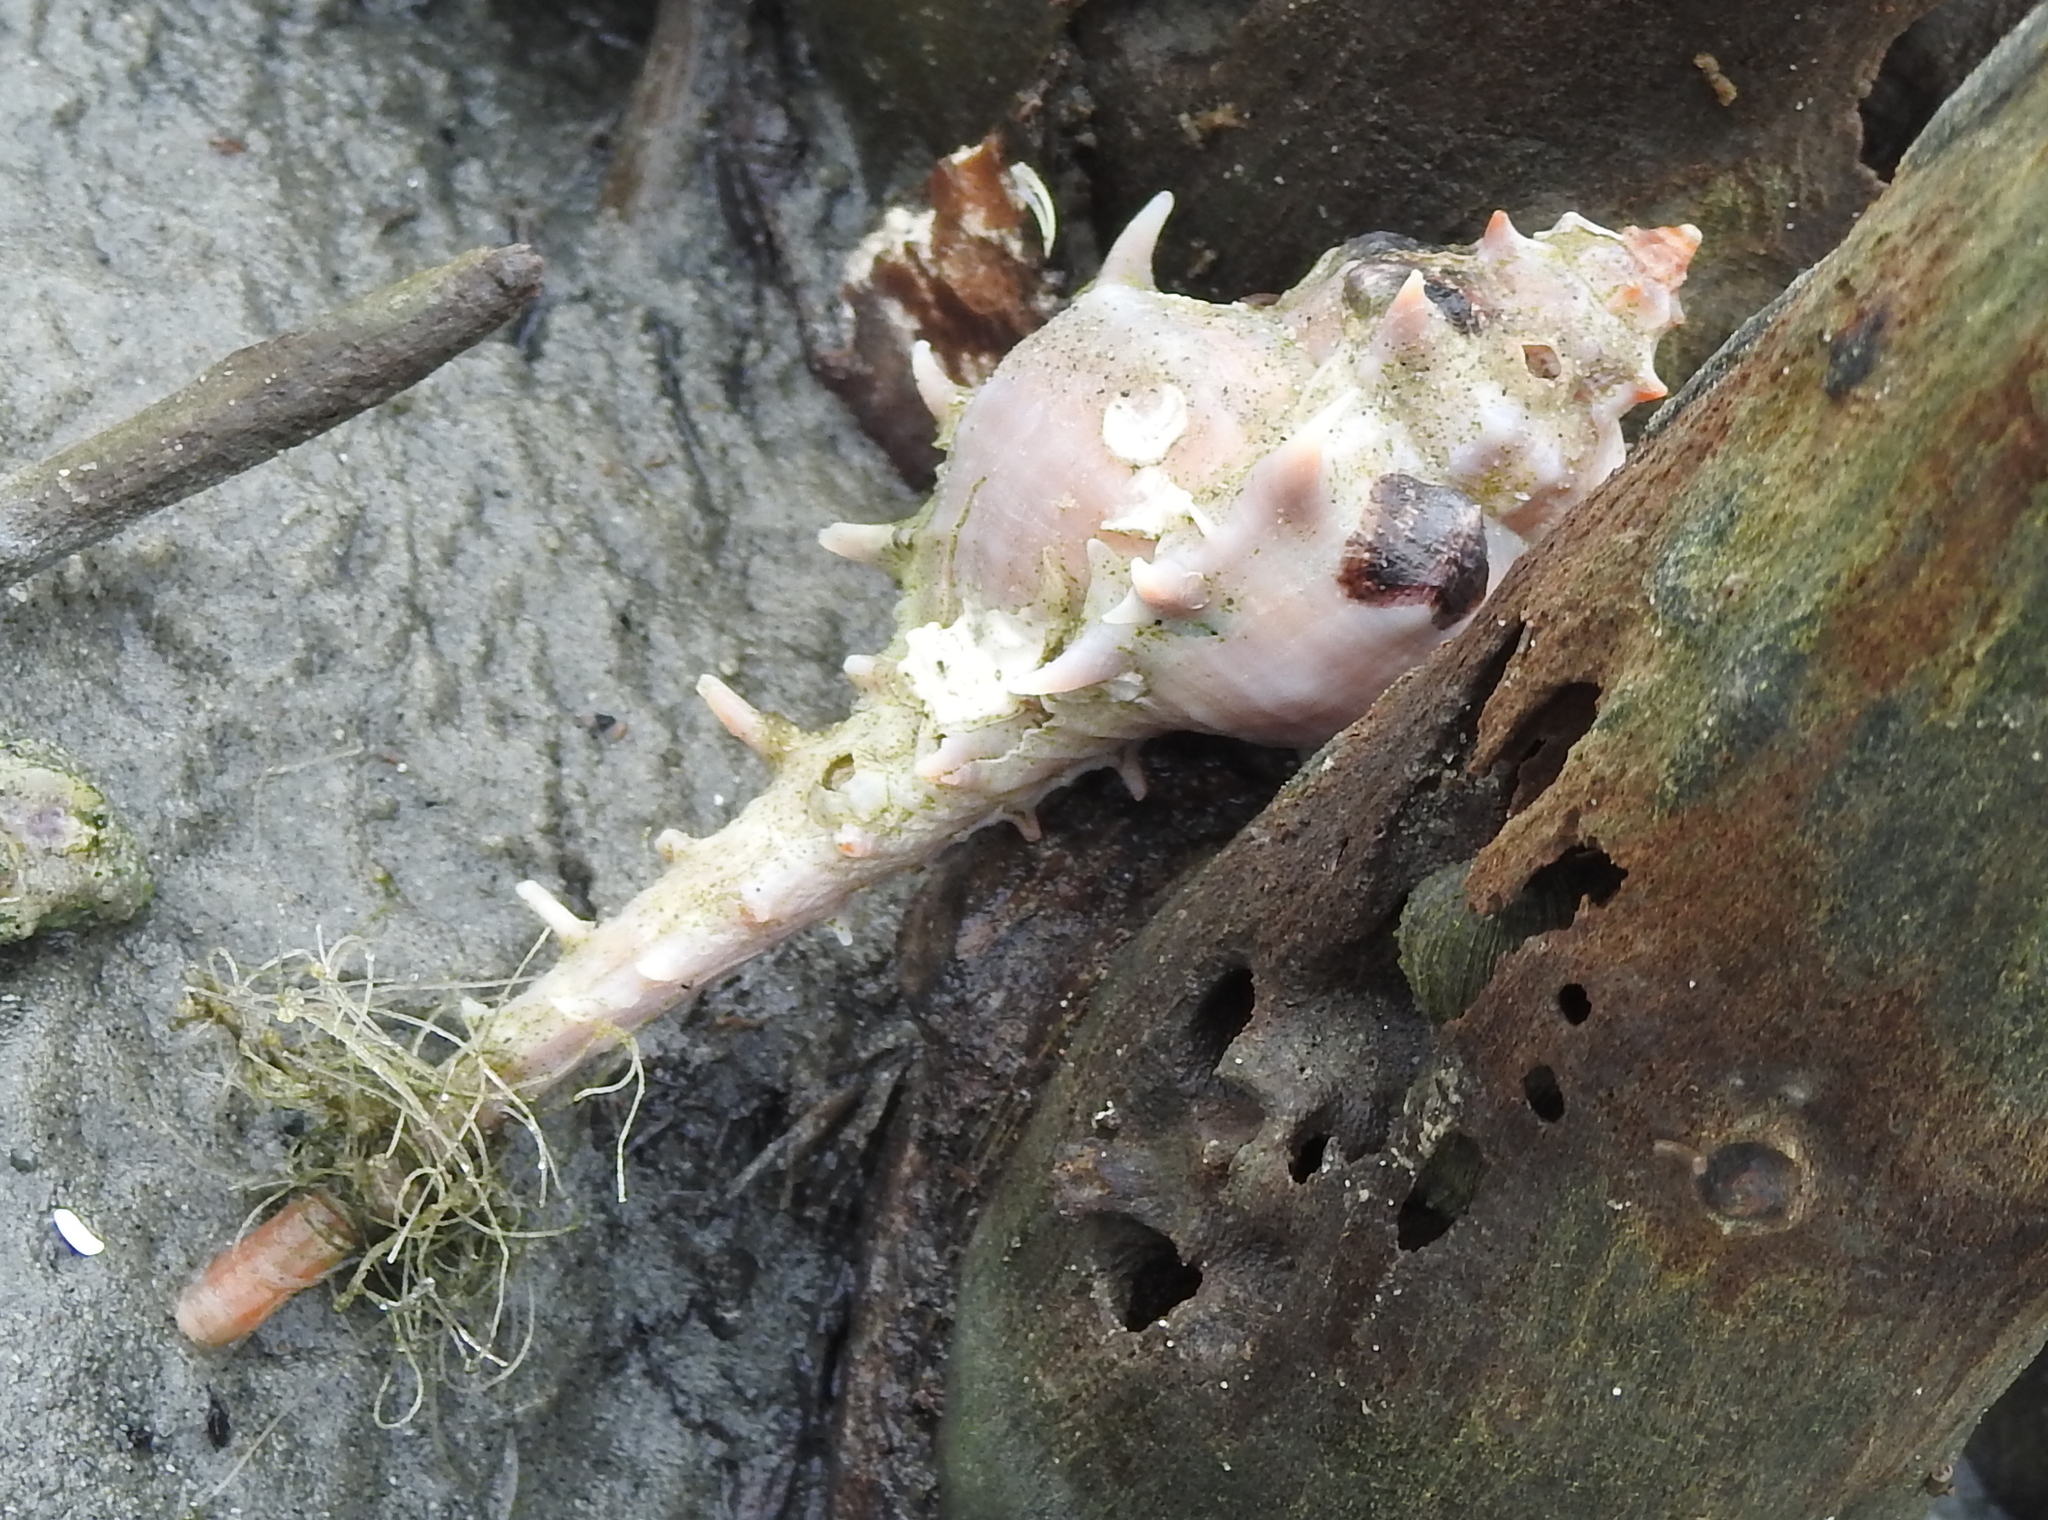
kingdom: Animalia
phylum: Mollusca
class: Gastropoda
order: Neogastropoda
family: Muricidae
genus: Murex
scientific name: Murex occa
